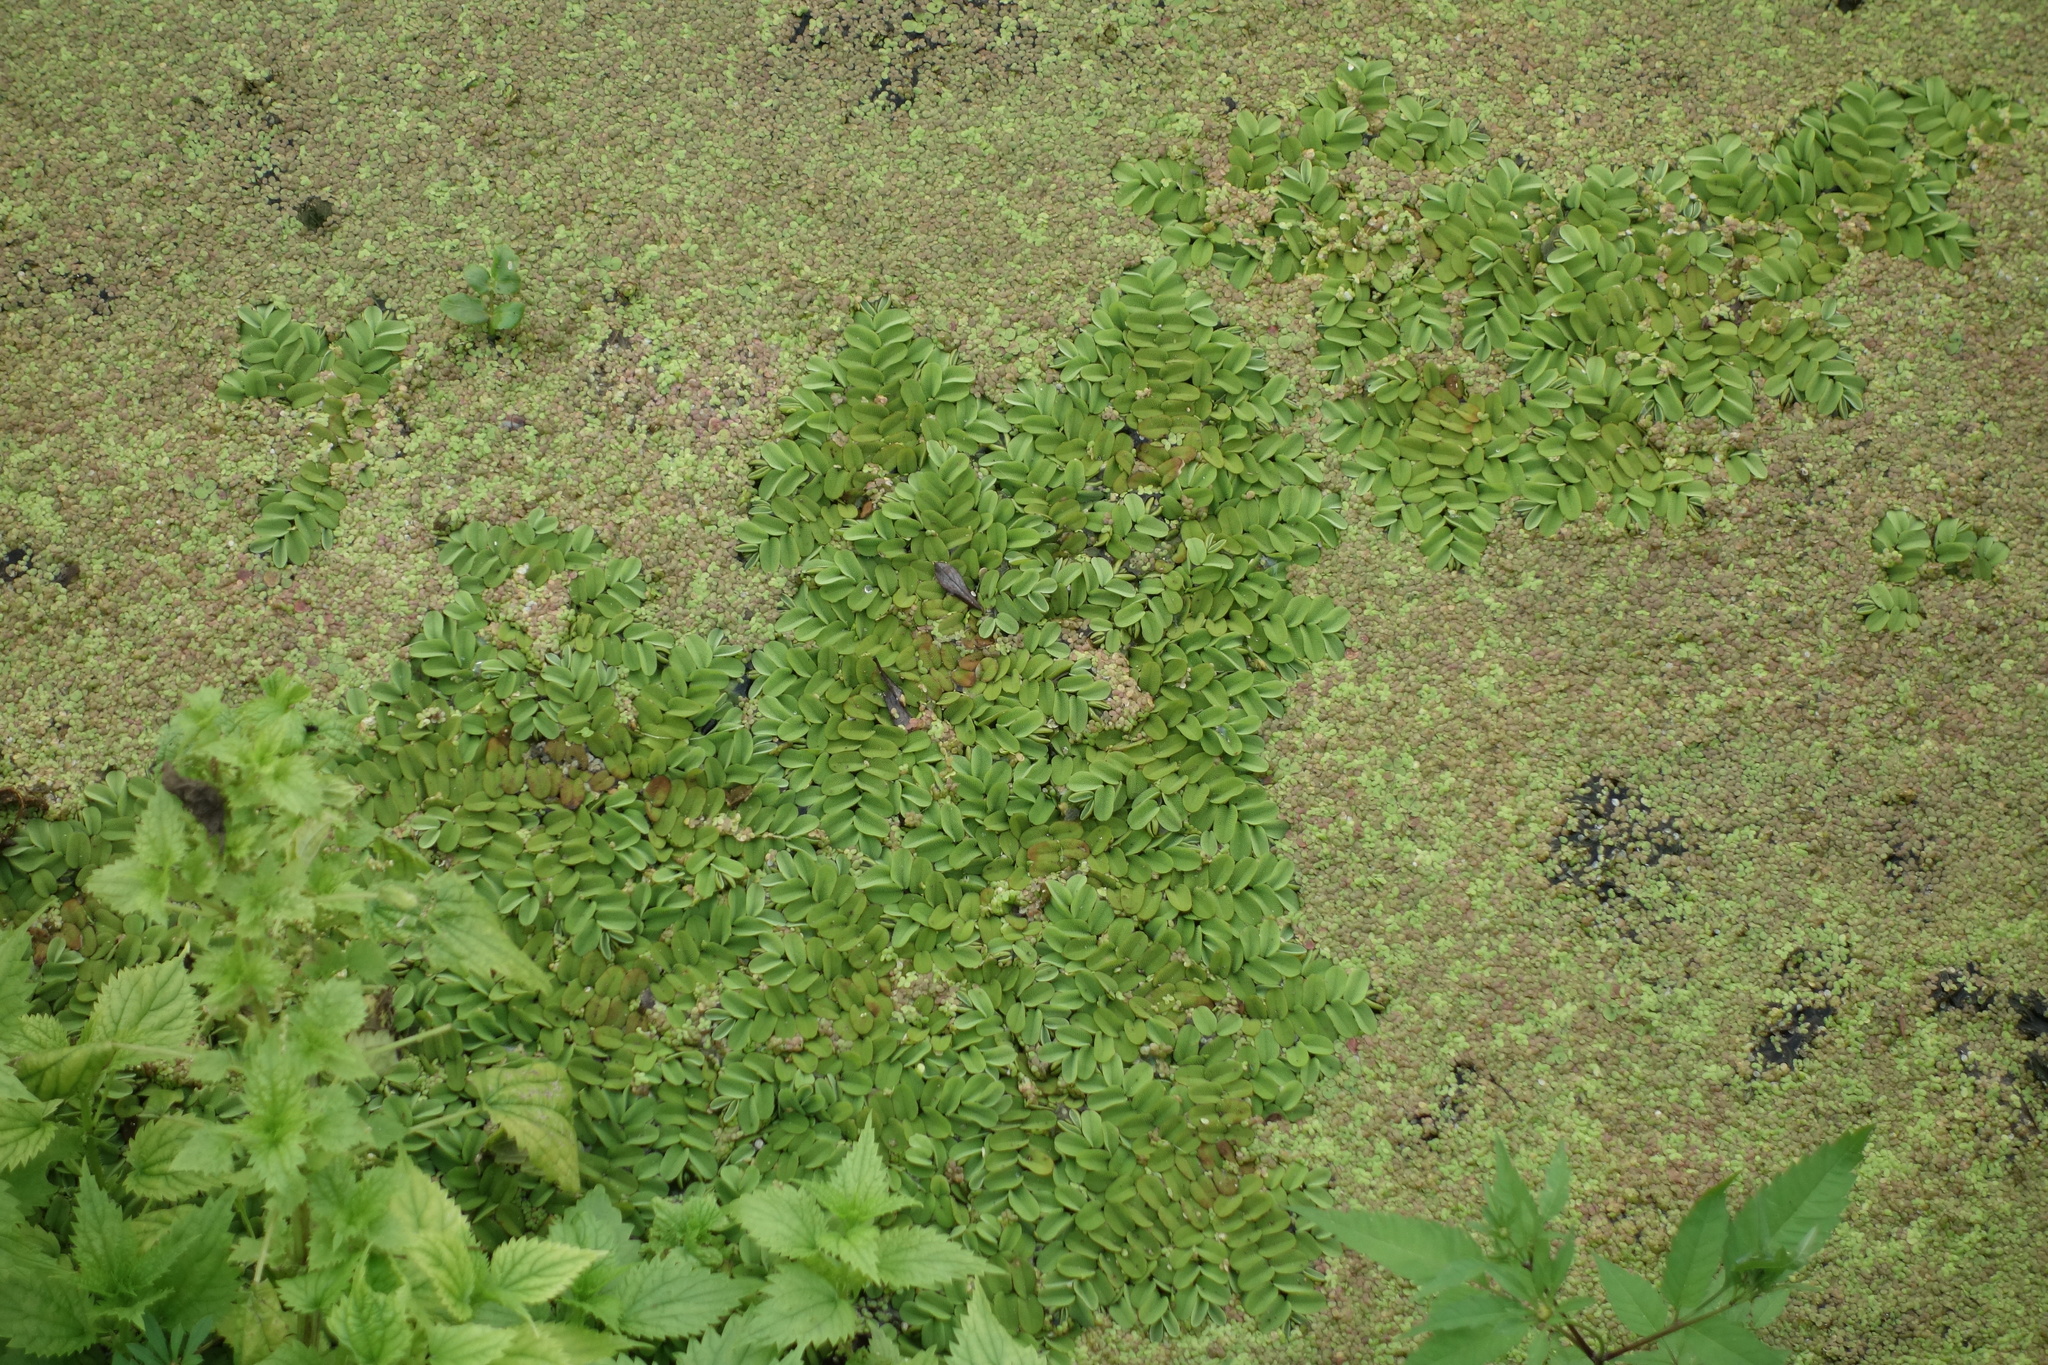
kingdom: Plantae
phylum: Tracheophyta
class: Polypodiopsida
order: Salviniales
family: Salviniaceae
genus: Salvinia
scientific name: Salvinia natans
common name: Floating fern
